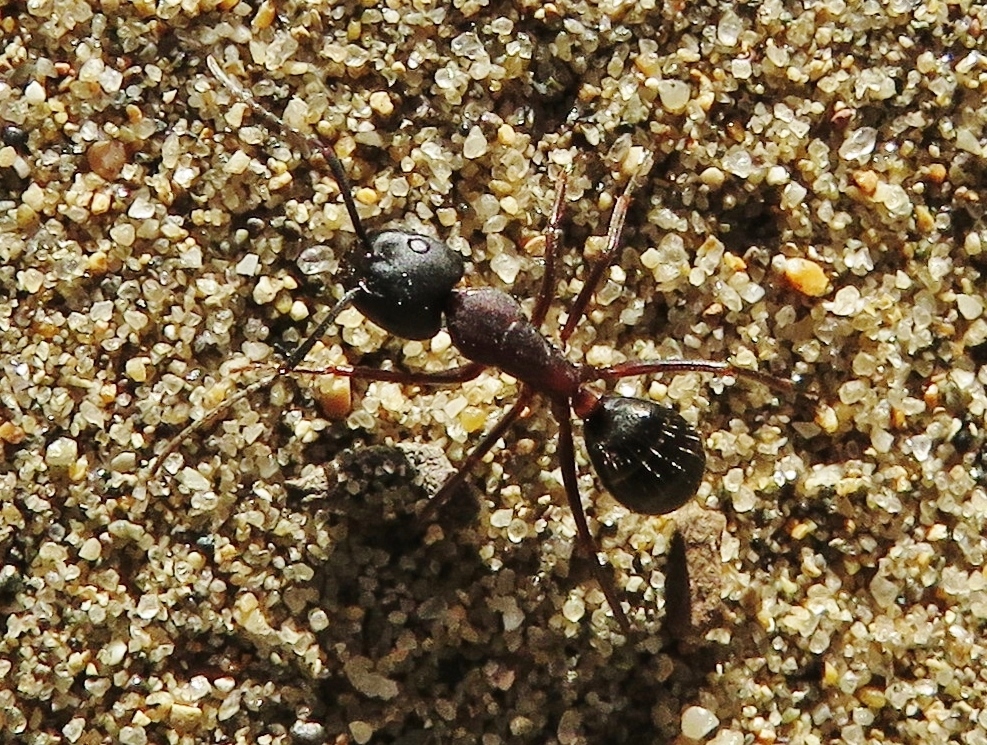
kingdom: Animalia
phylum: Arthropoda
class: Insecta
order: Hymenoptera
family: Formicidae
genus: Camponotus
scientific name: Camponotus vicinus
